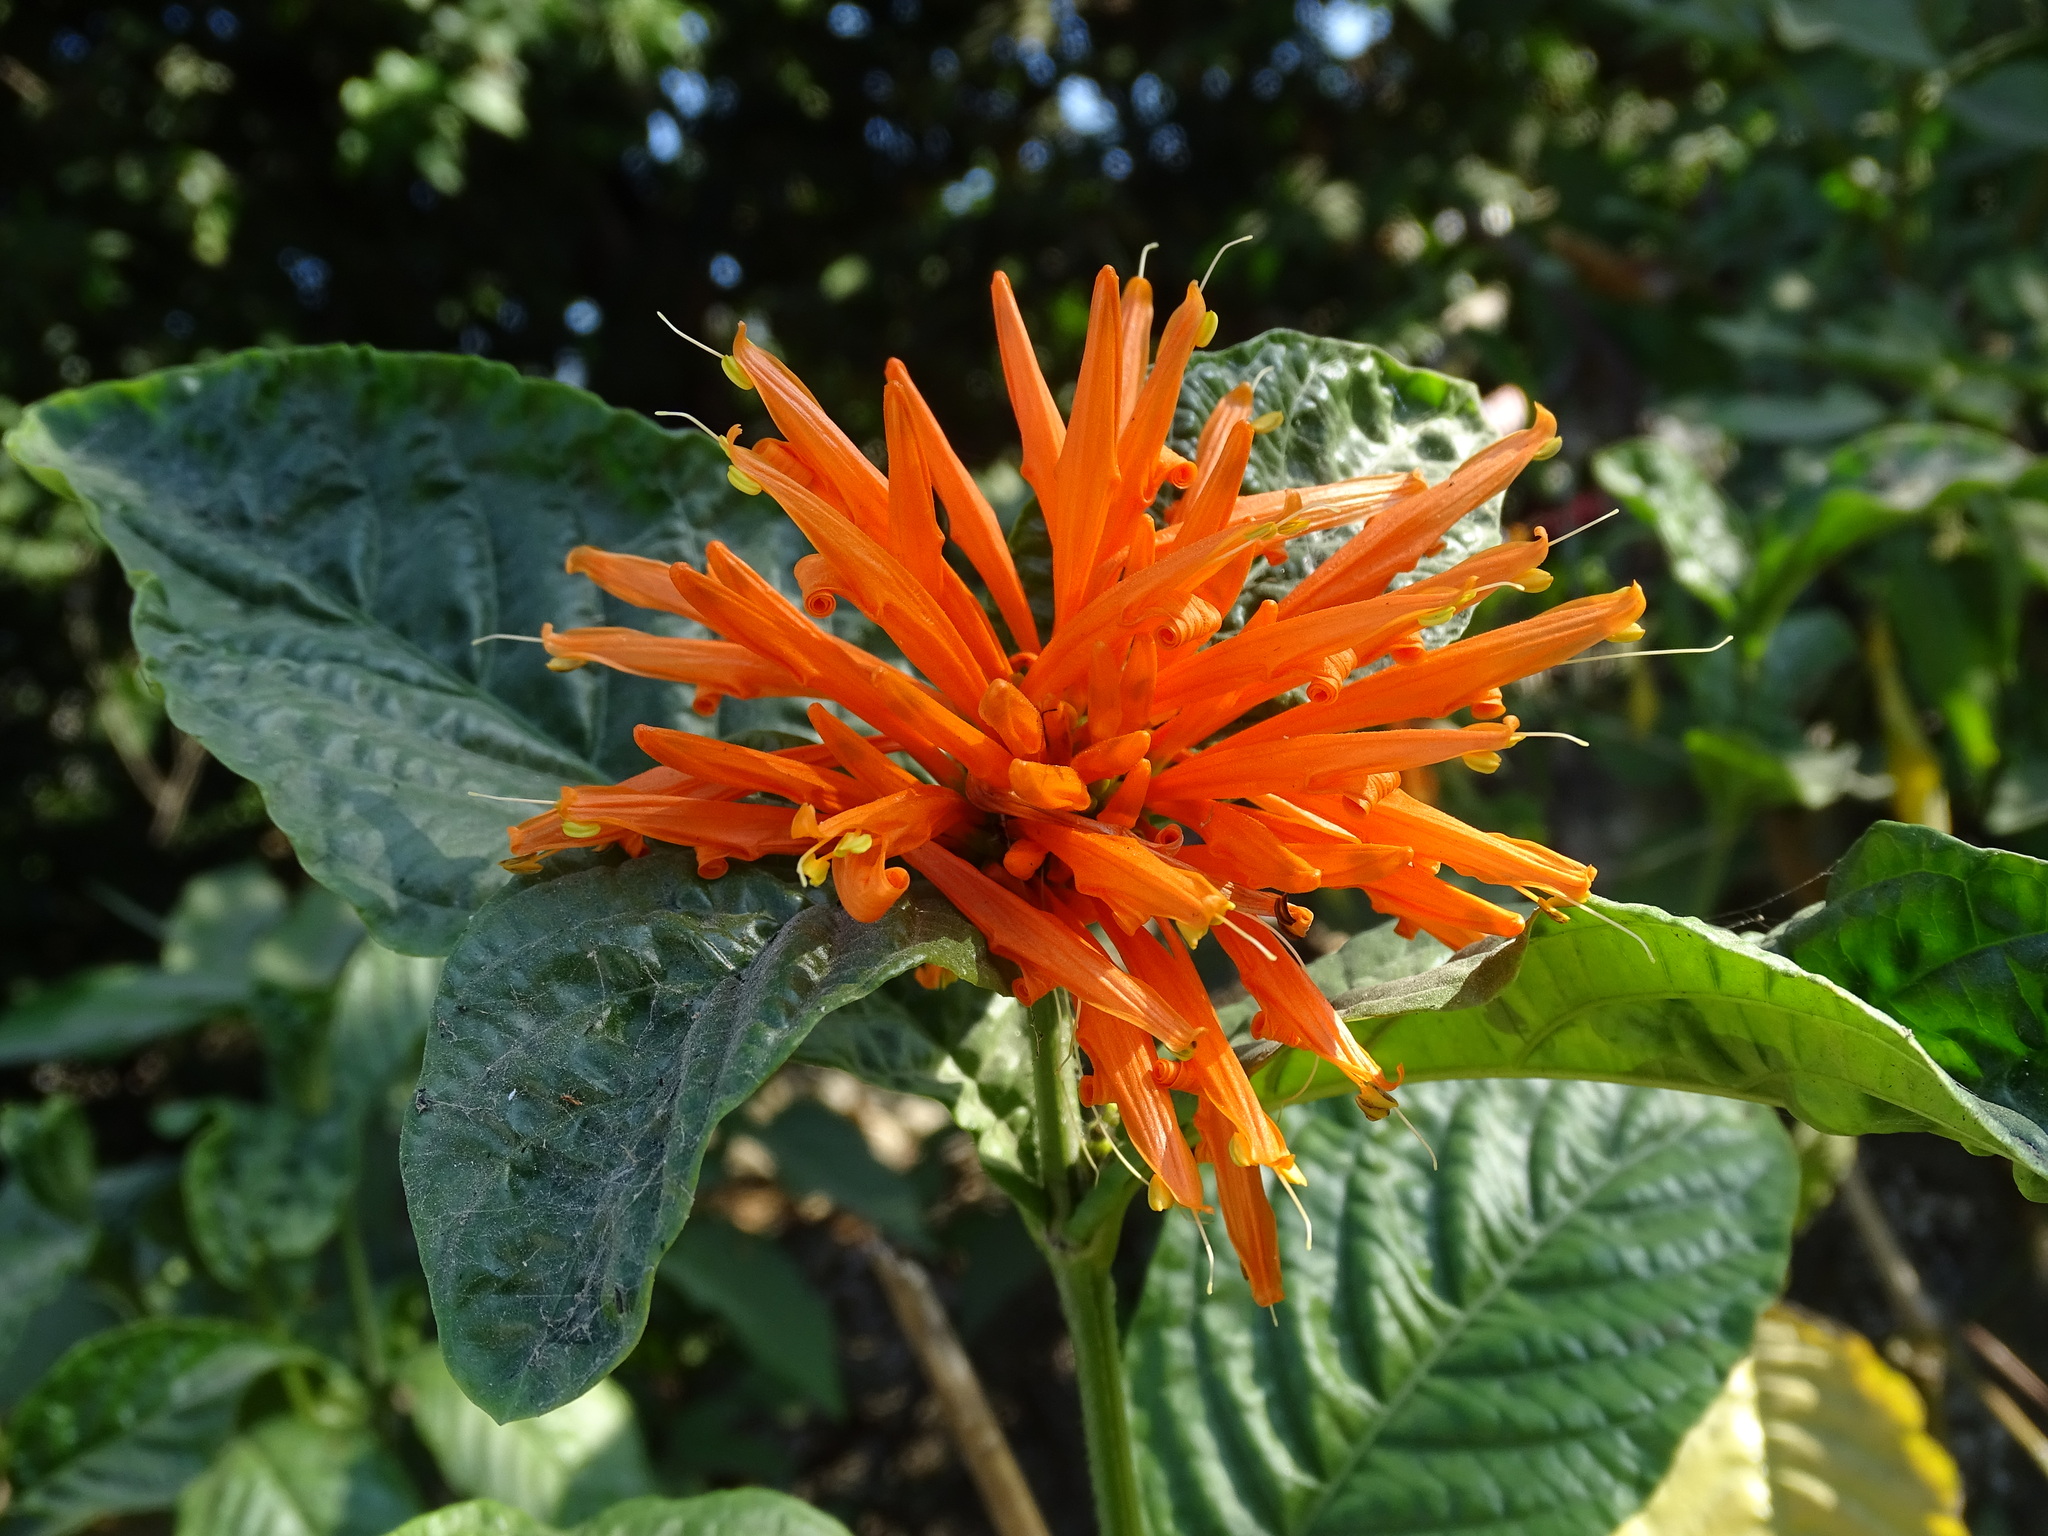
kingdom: Plantae
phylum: Tracheophyta
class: Magnoliopsida
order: Lamiales
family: Acanthaceae
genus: Justicia
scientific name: Justicia spicigera
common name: Mohintli
